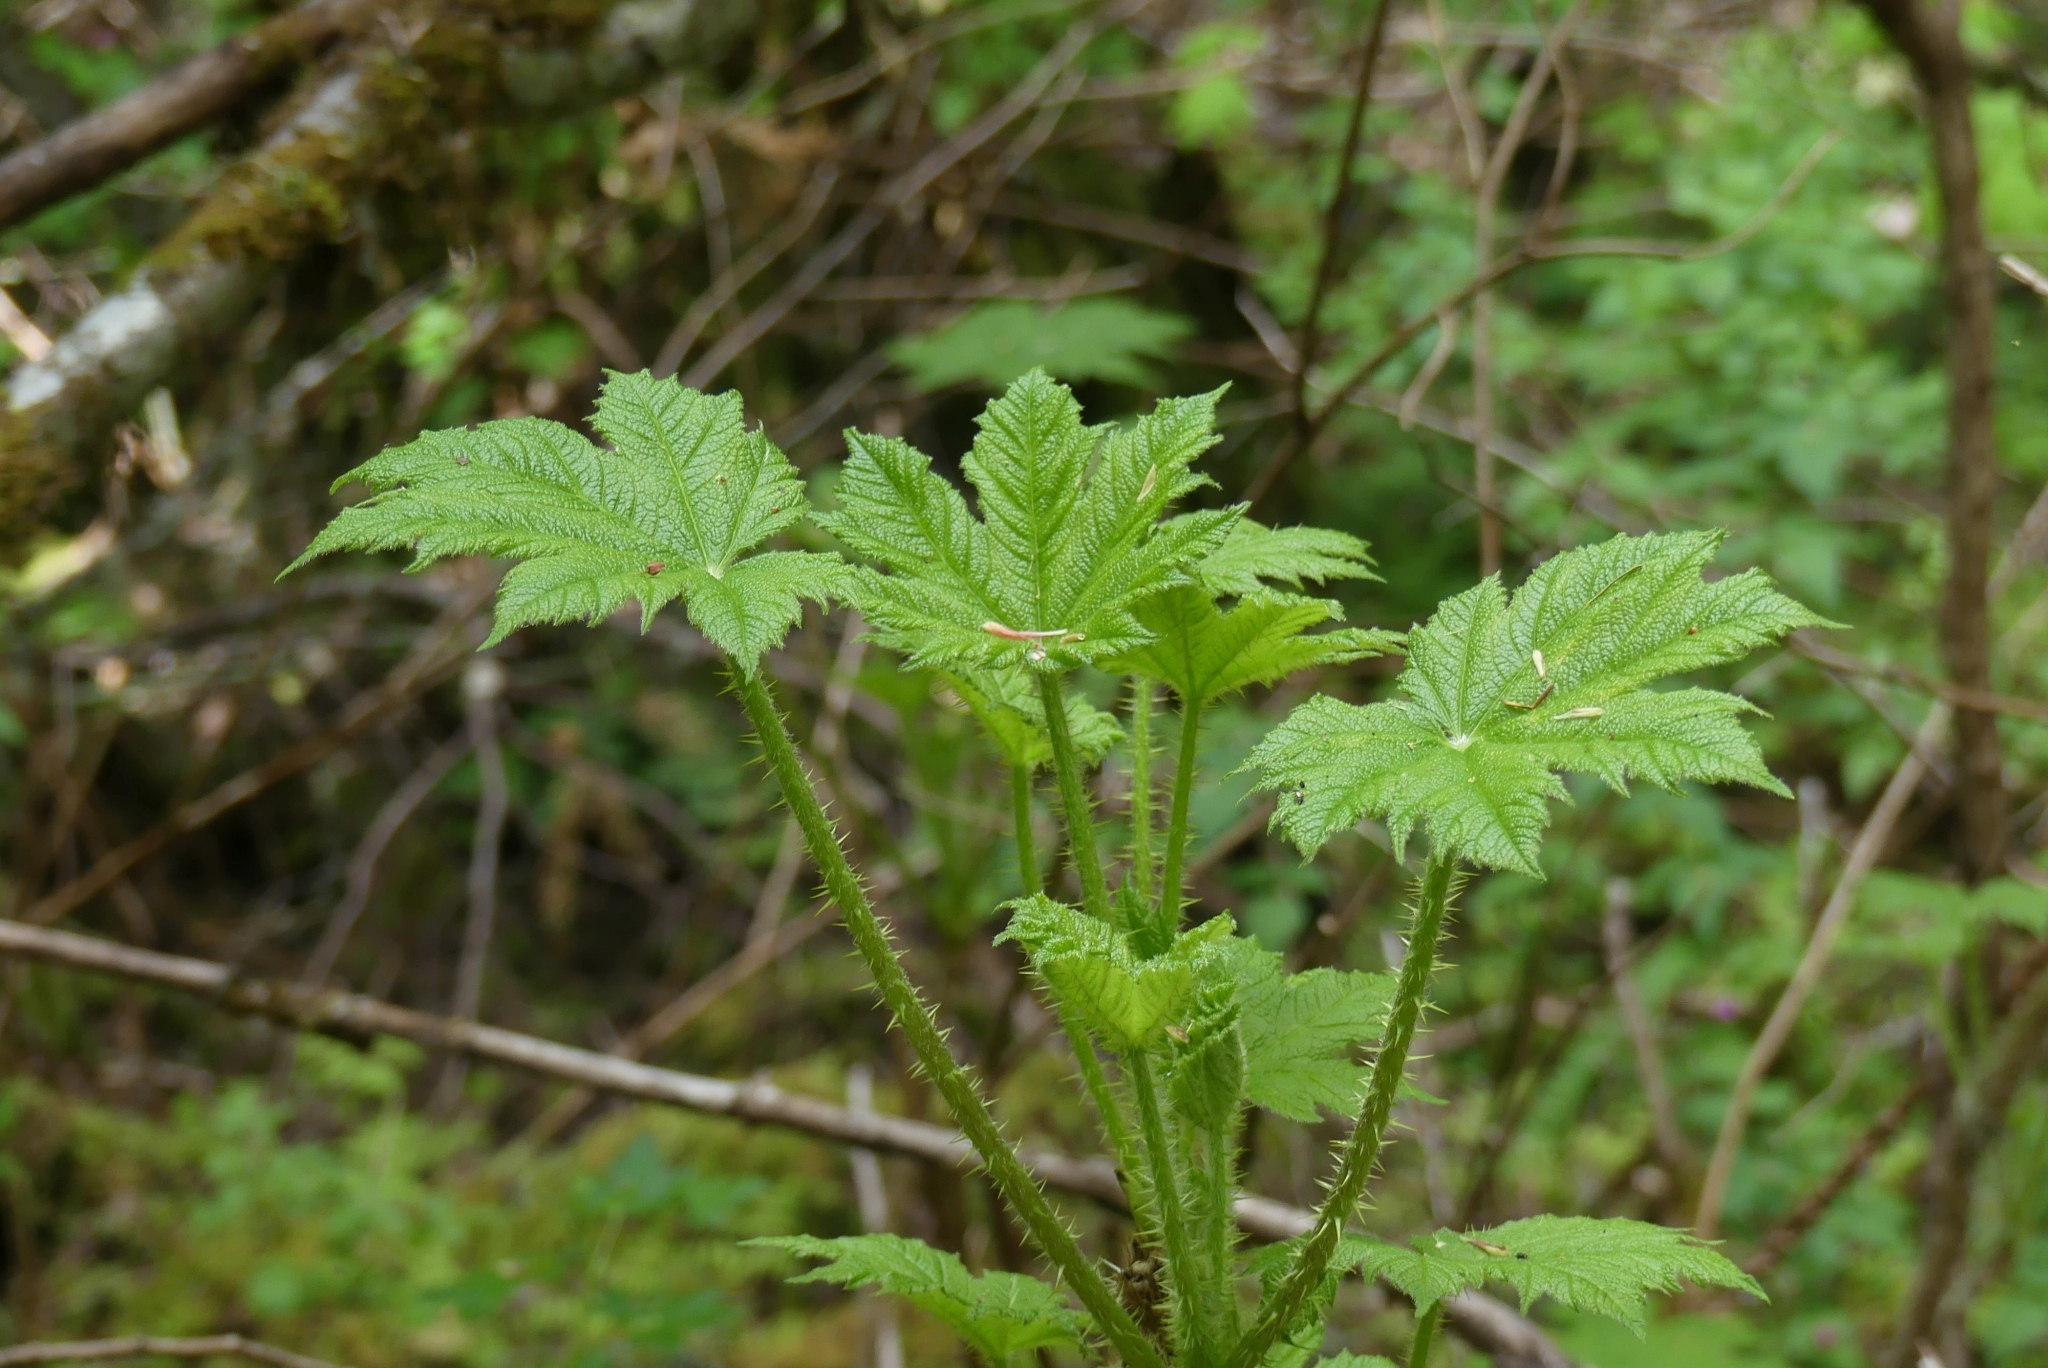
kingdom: Plantae
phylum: Tracheophyta
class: Magnoliopsida
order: Apiales
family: Araliaceae
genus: Oplopanax
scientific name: Oplopanax horridus
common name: Devil's walking-stick
